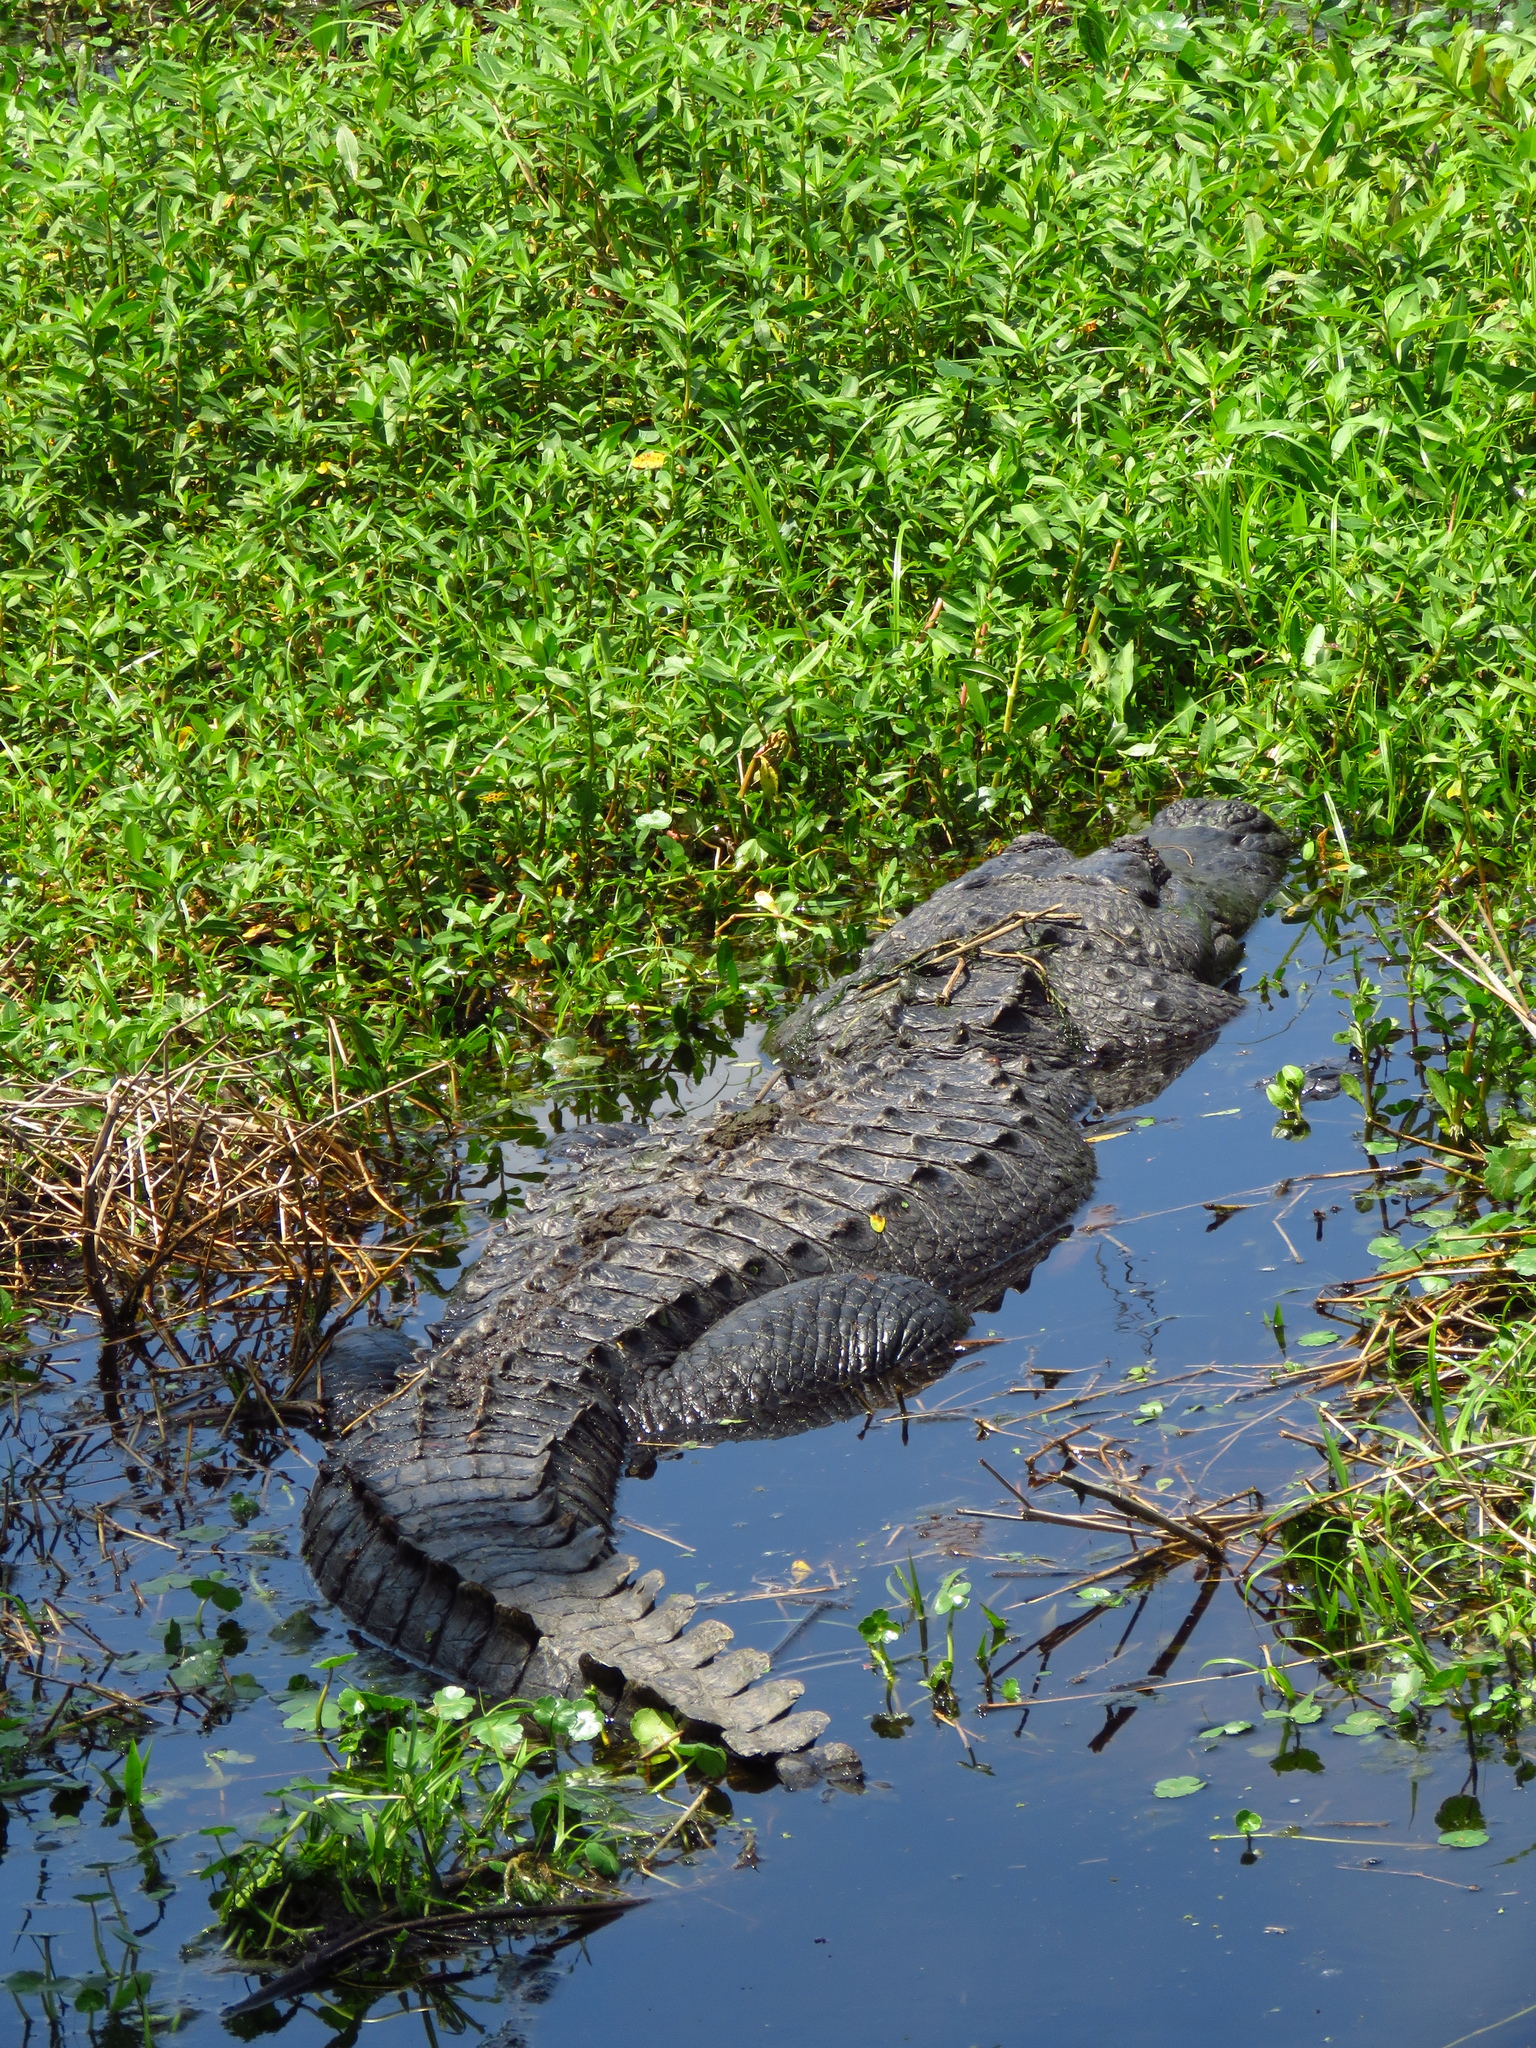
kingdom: Animalia
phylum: Chordata
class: Crocodylia
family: Alligatoridae
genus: Alligator
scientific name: Alligator mississippiensis
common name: American alligator
